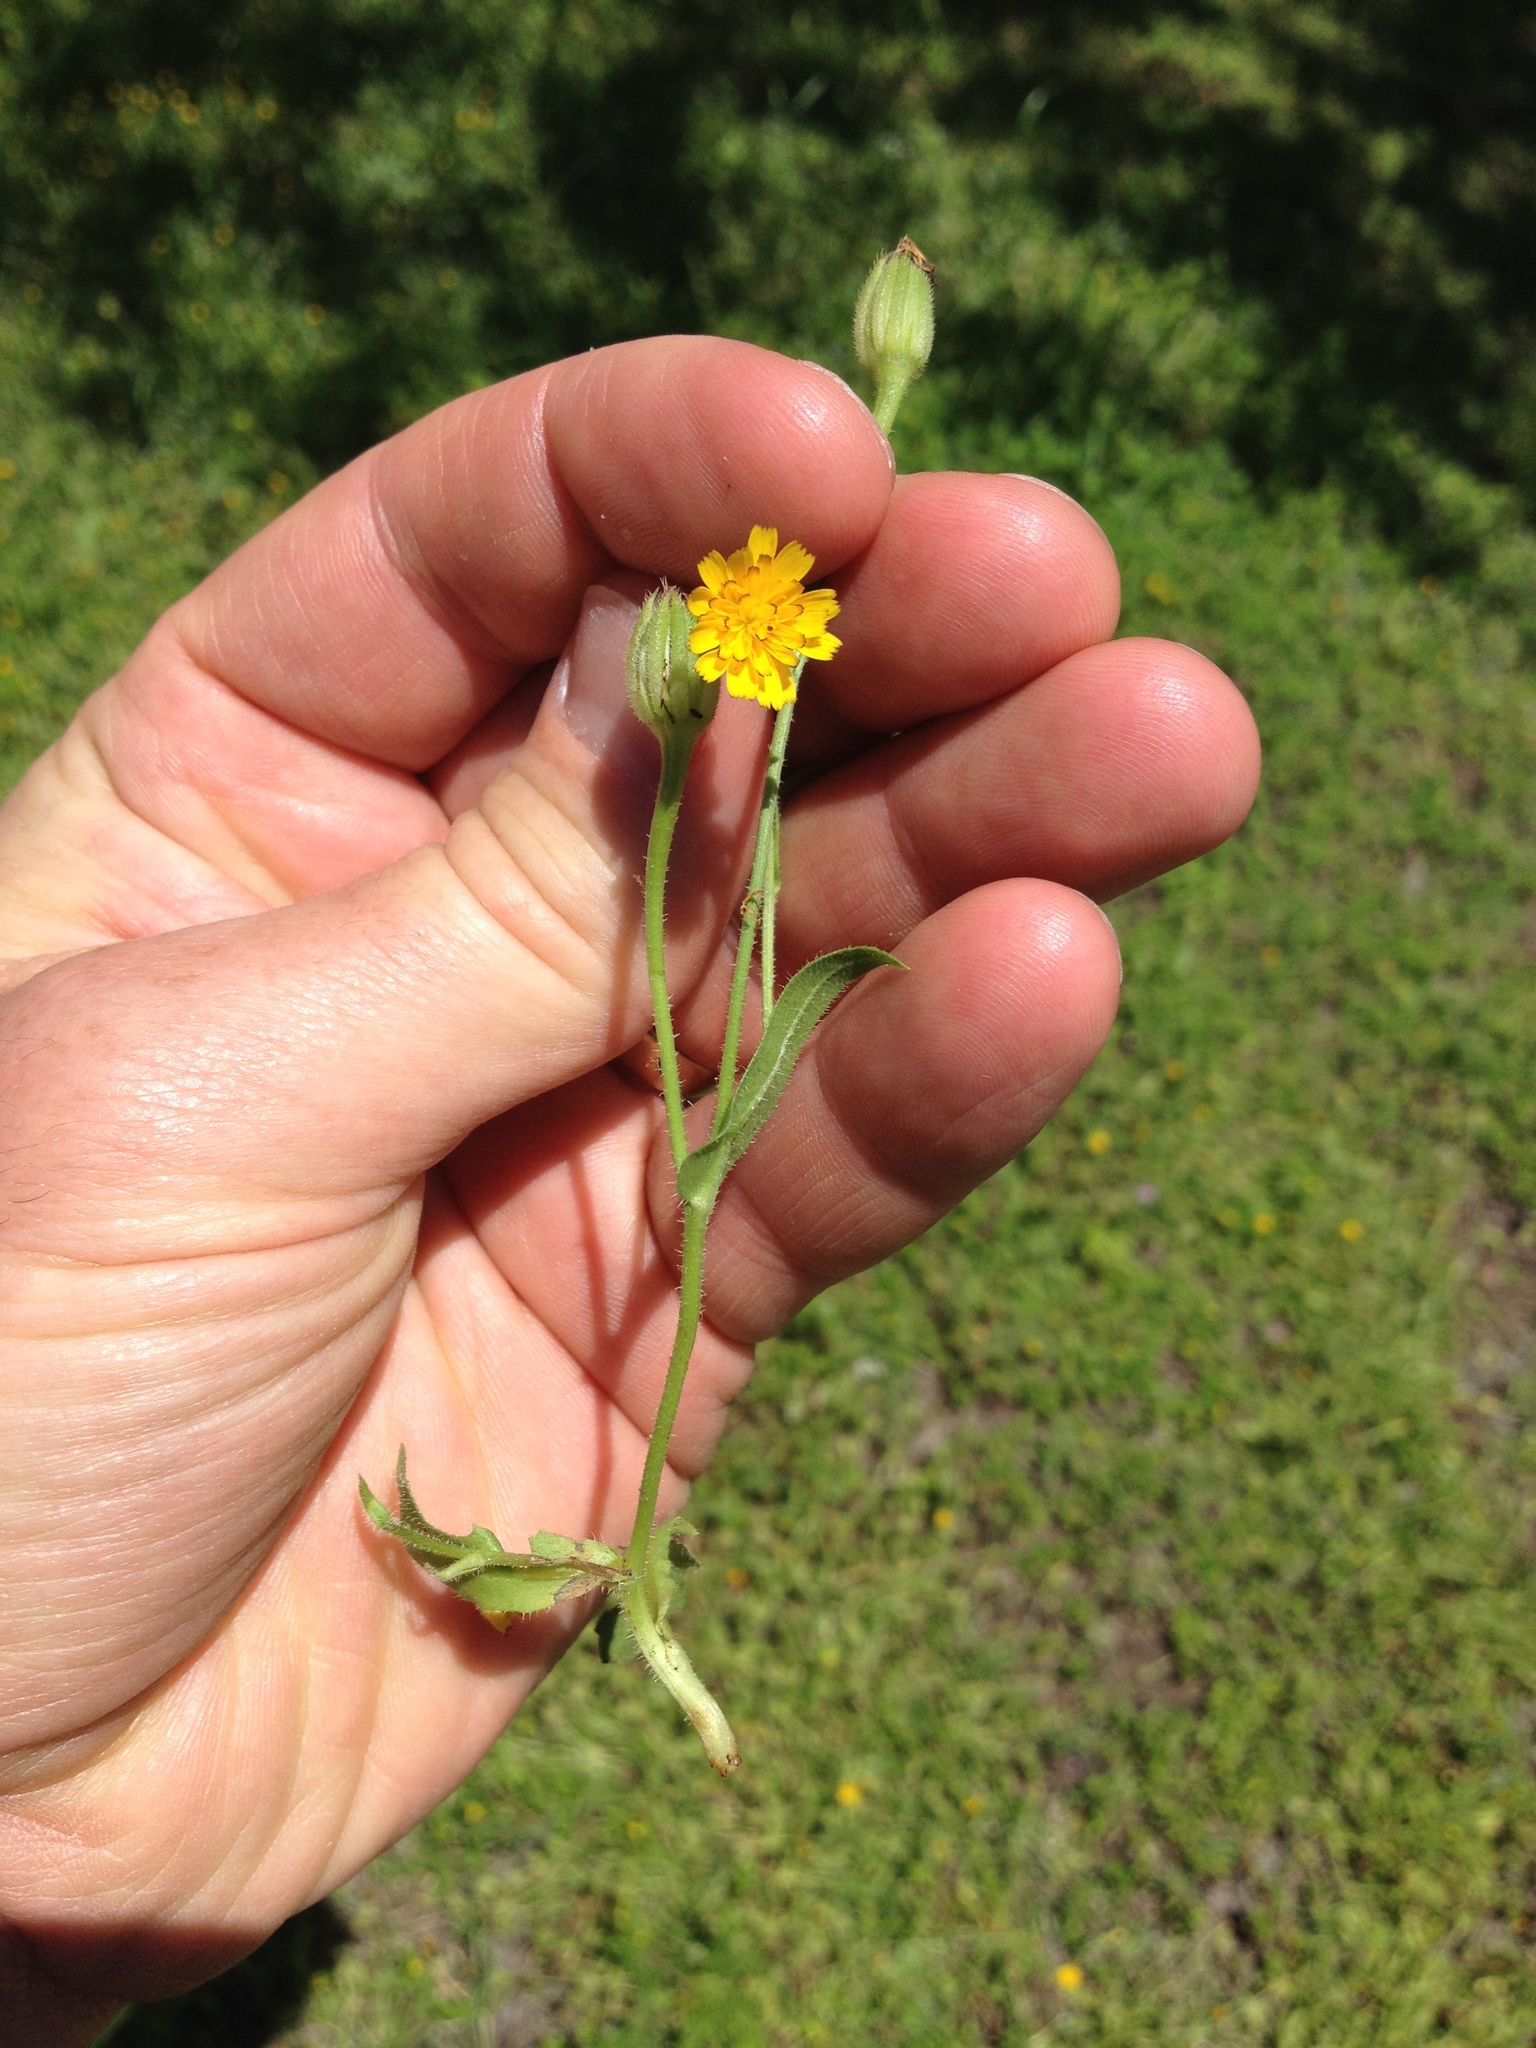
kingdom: Plantae
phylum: Tracheophyta
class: Magnoliopsida
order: Asterales
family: Asteraceae
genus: Hedypnois
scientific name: Hedypnois rhagadioloides
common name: Cretan weed
